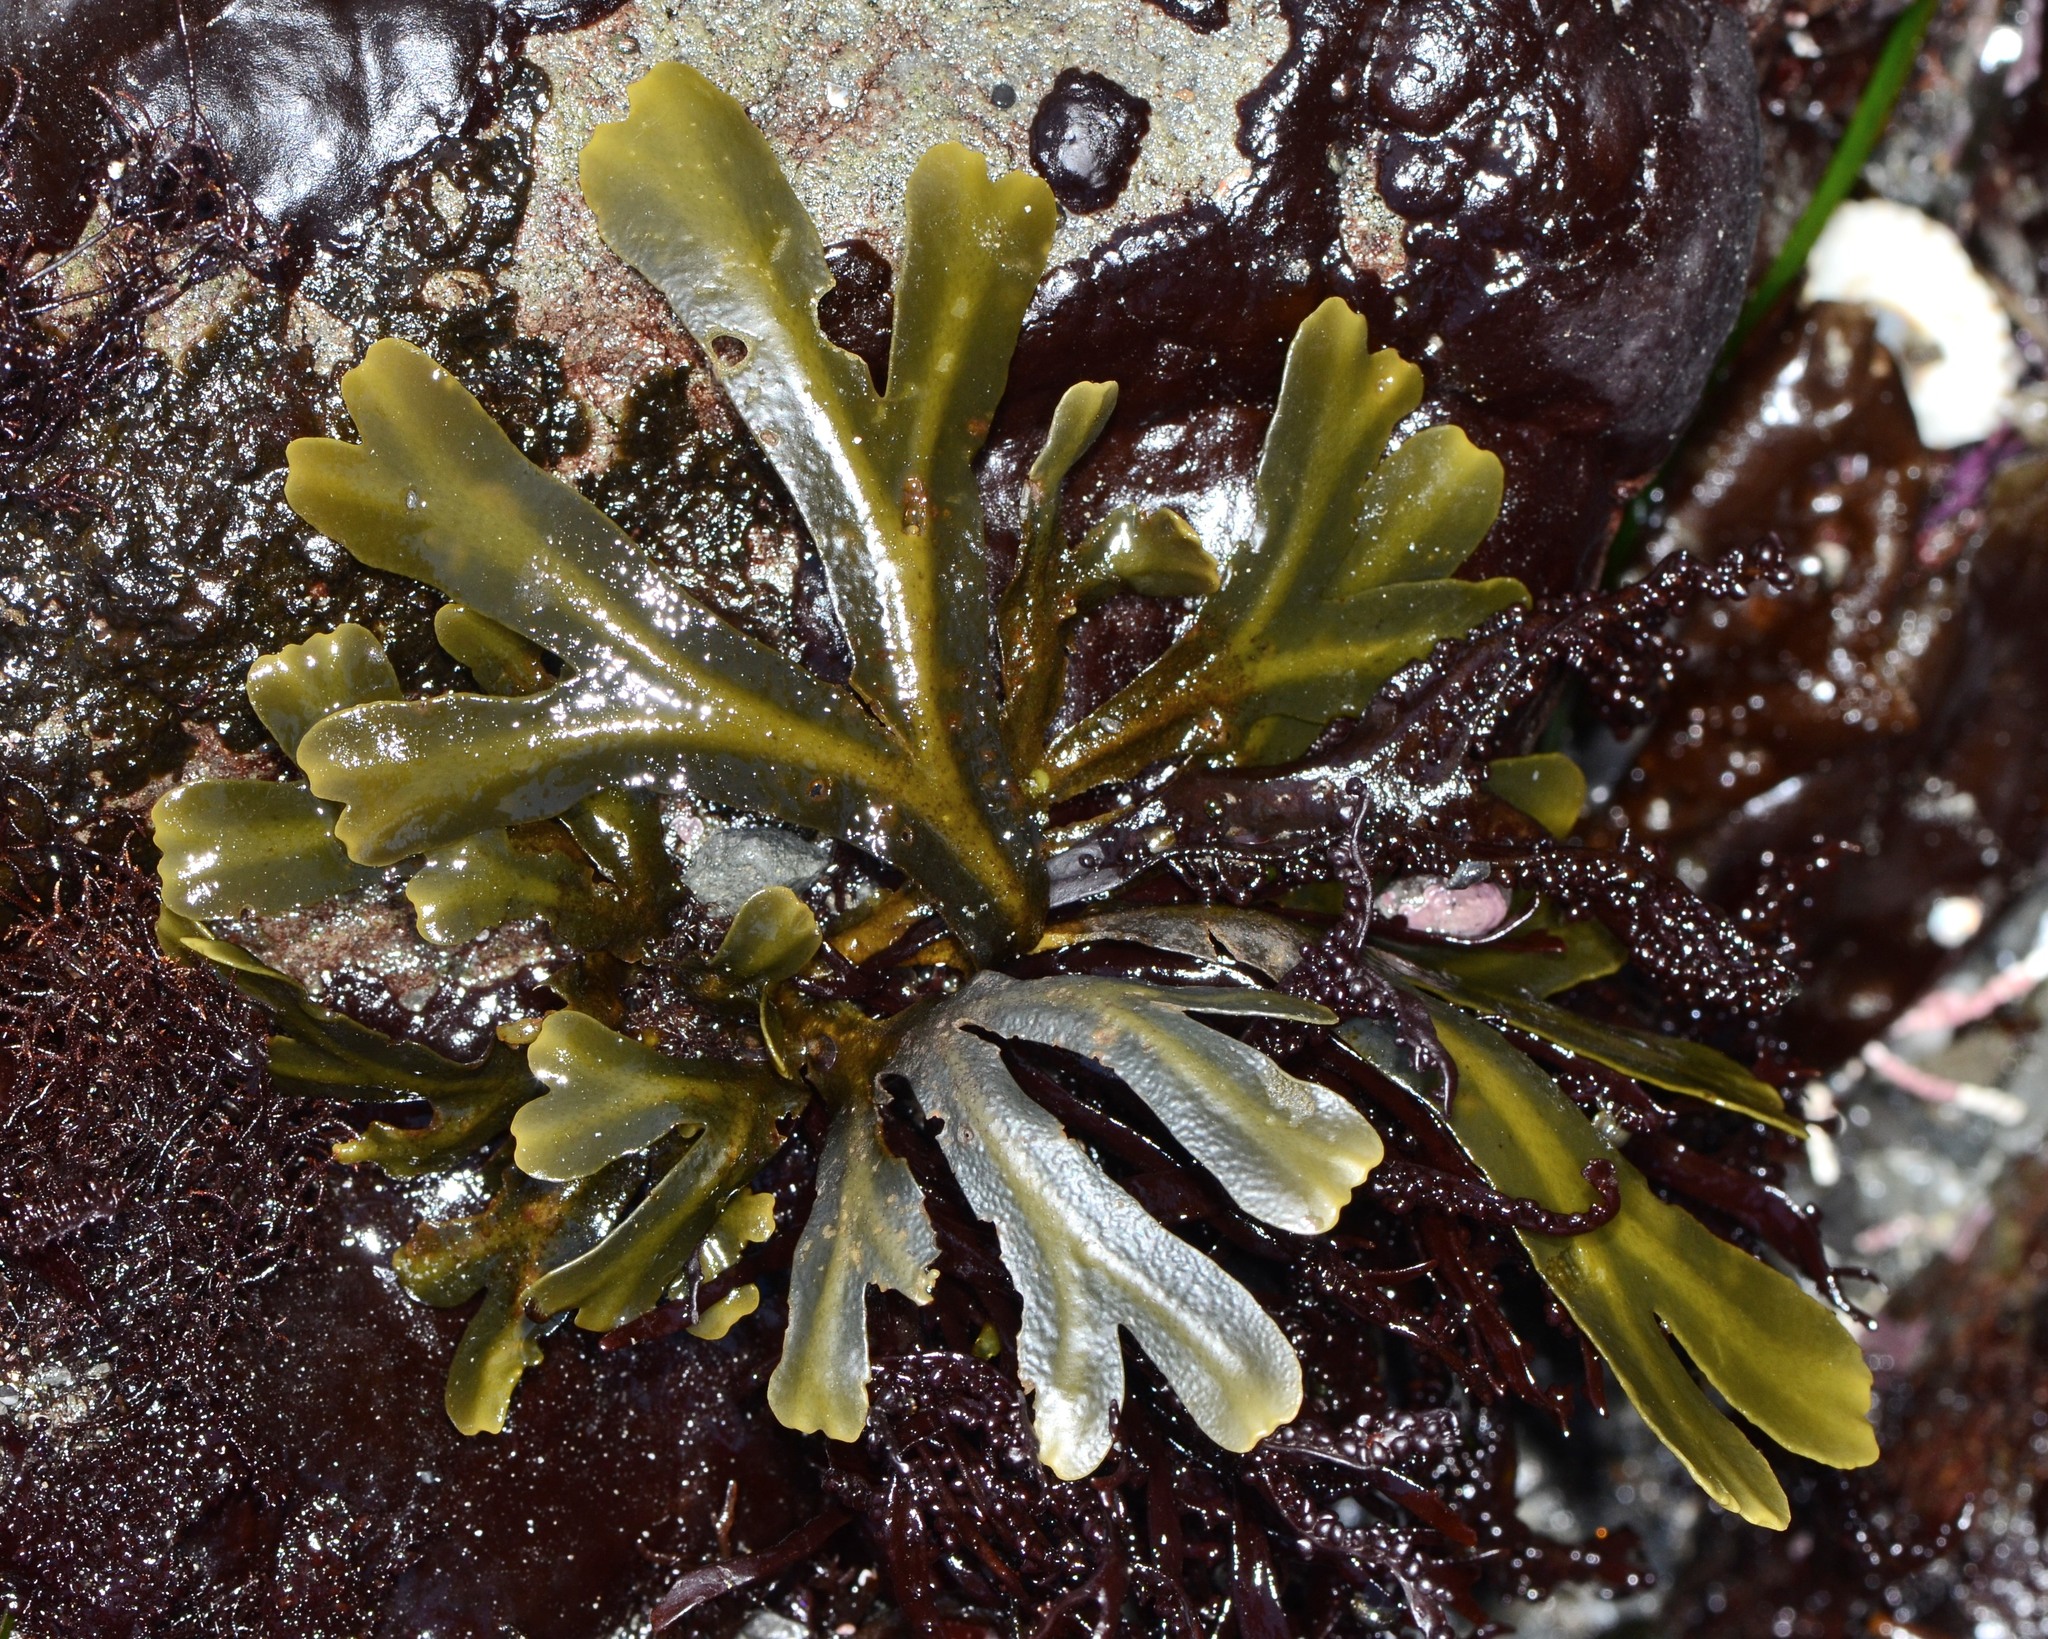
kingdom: Chromista
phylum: Ochrophyta
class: Phaeophyceae
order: Fucales
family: Fucaceae
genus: Fucus
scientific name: Fucus distichus
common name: Rockweed
